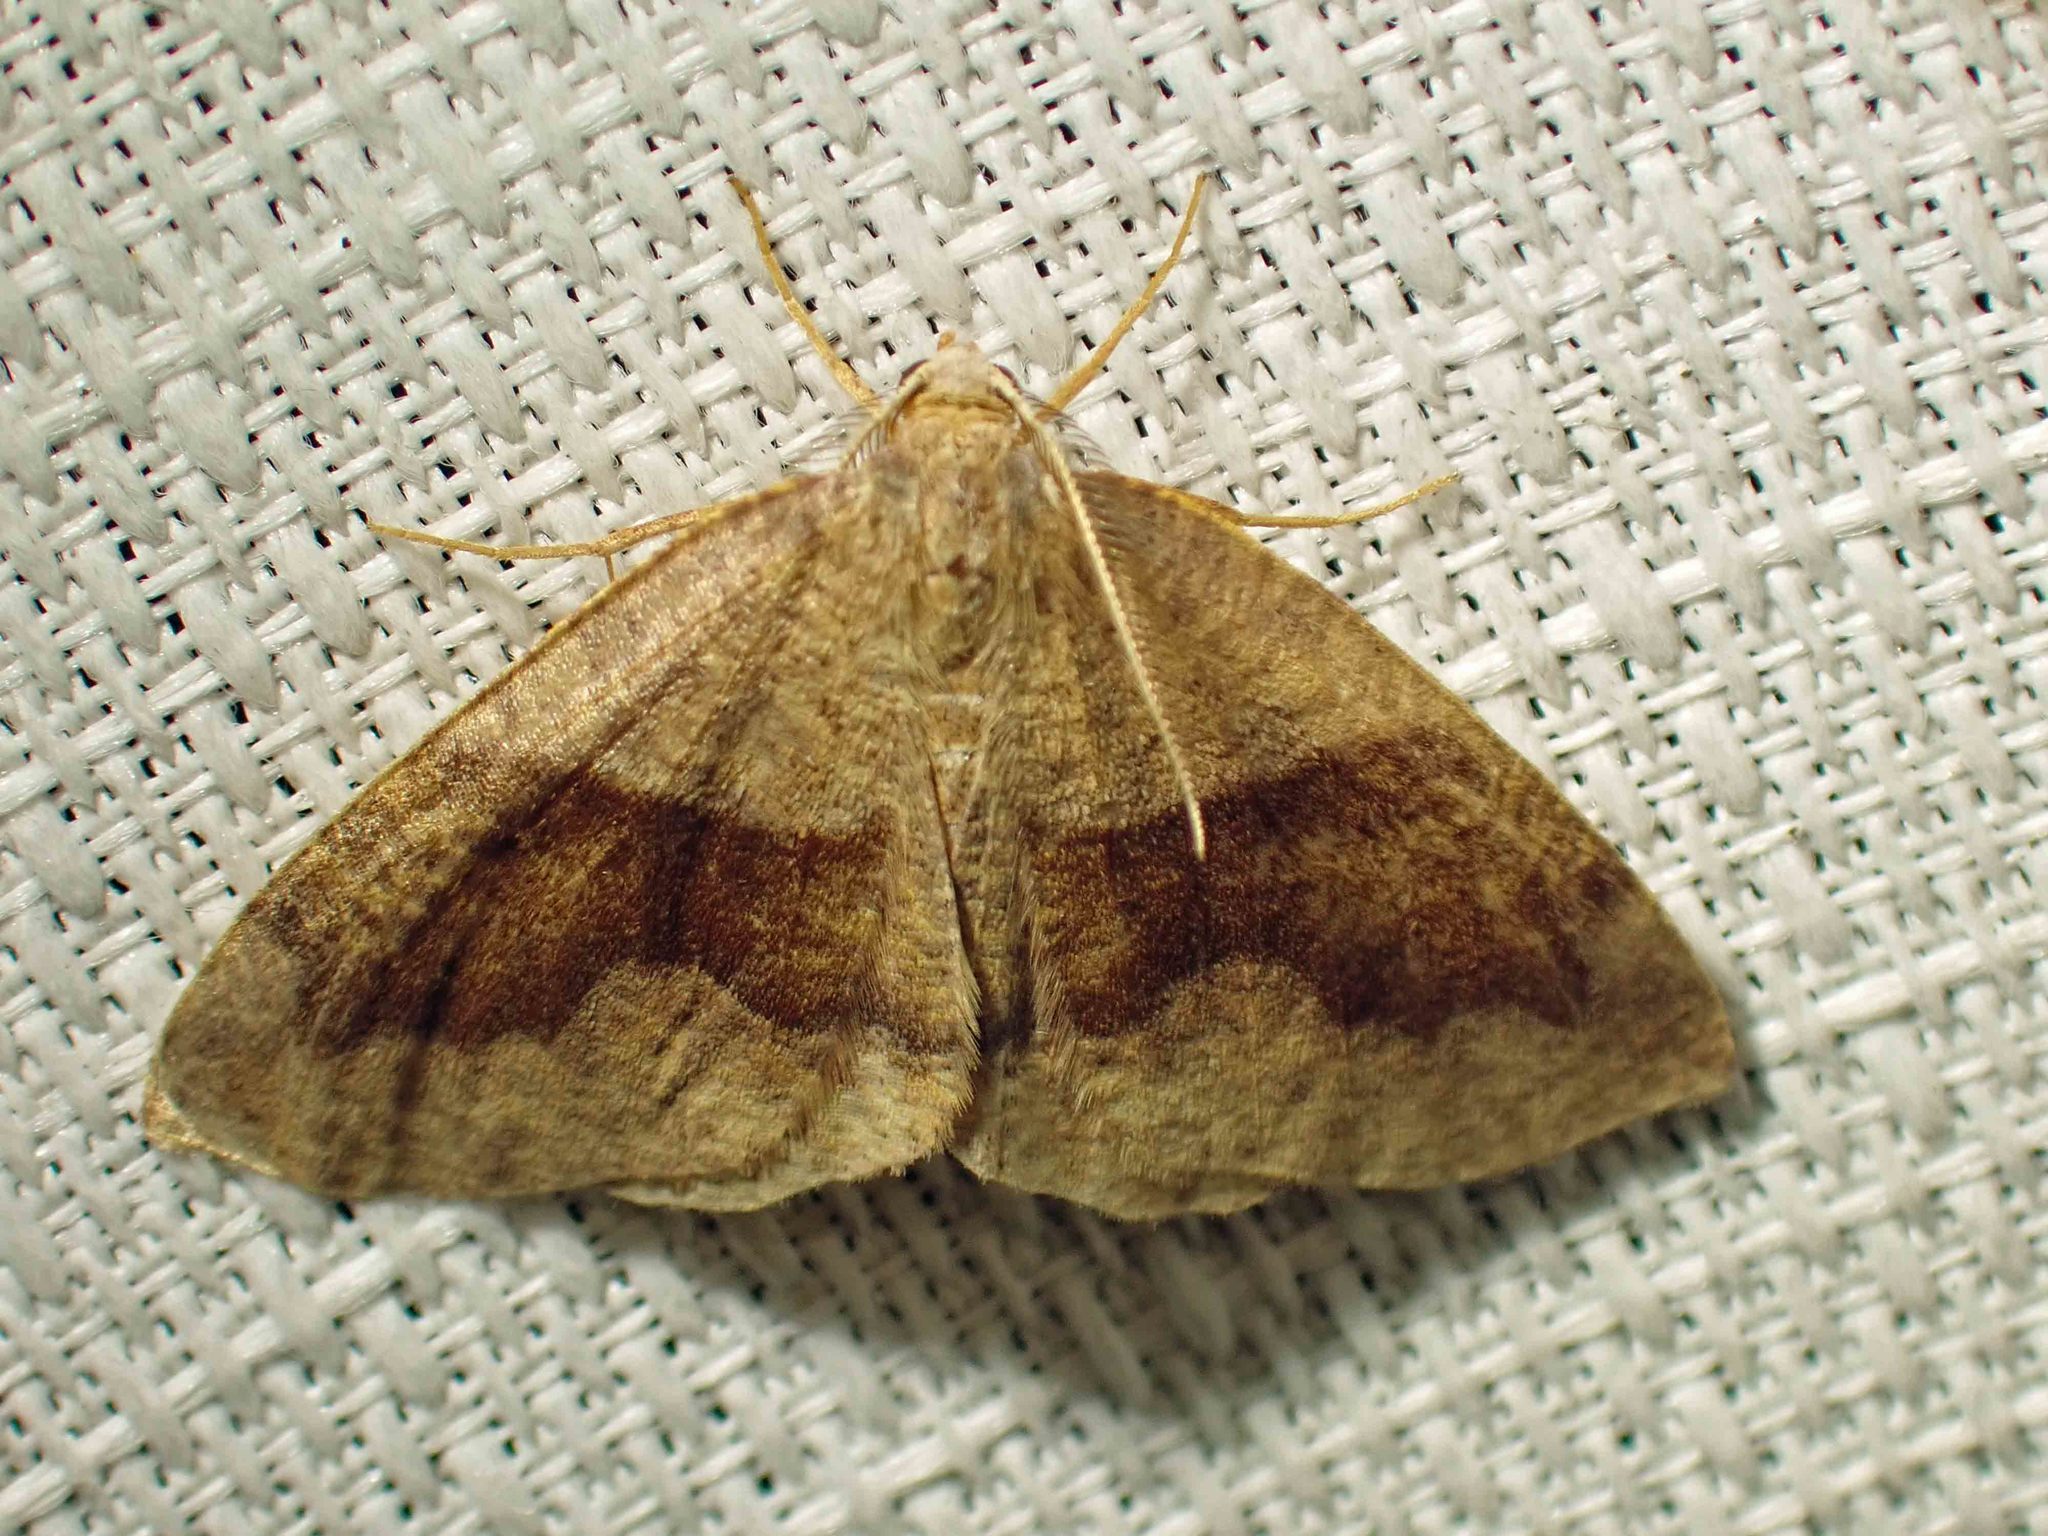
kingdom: Animalia
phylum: Arthropoda
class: Insecta
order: Lepidoptera
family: Geometridae
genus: Plagodis
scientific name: Plagodis pulveraria
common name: Barred umber
